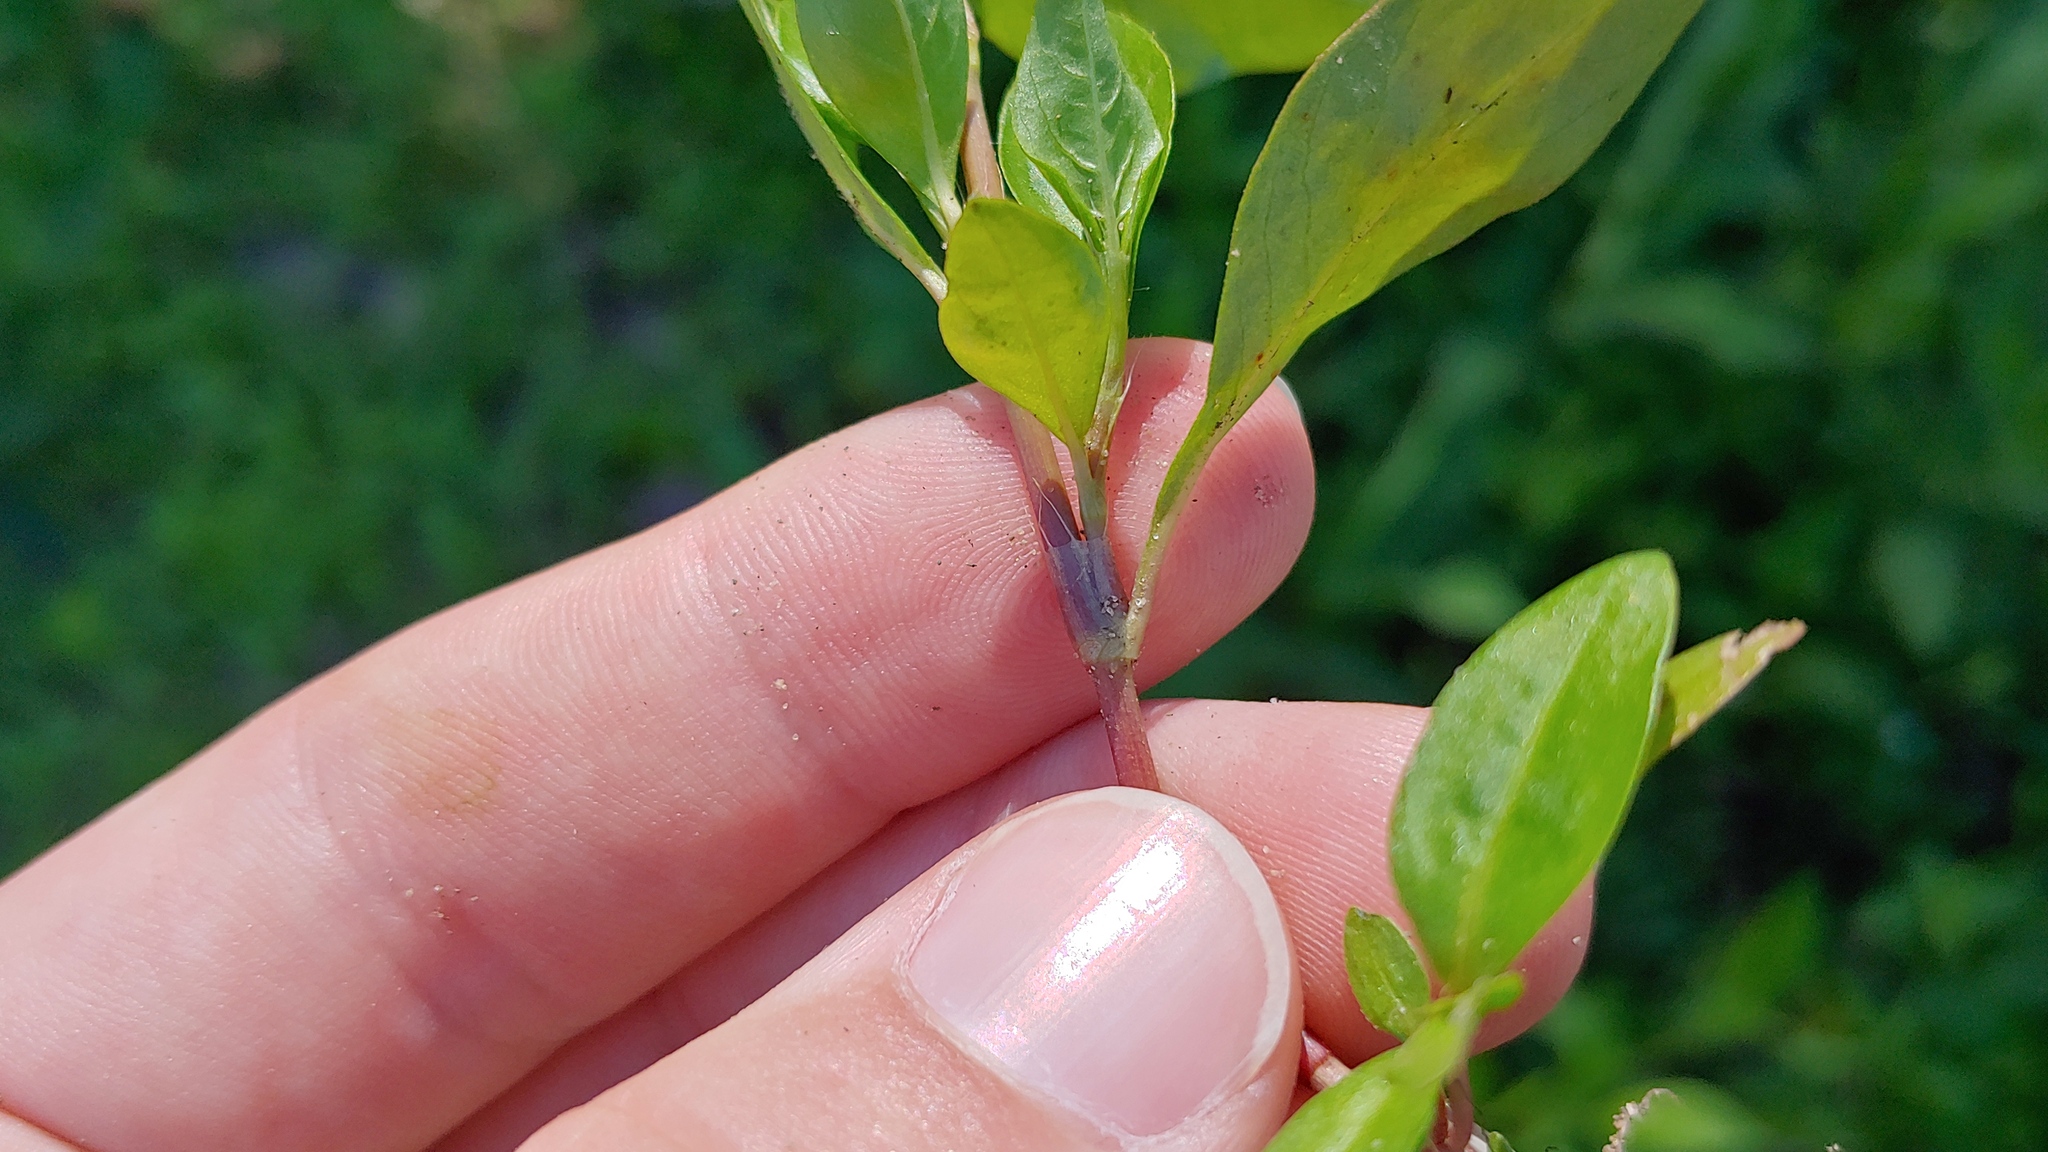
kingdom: Plantae
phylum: Tracheophyta
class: Magnoliopsida
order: Caryophyllales
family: Polygonaceae
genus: Persicaria
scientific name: Persicaria longiseta
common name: Bristly lady's-thumb
